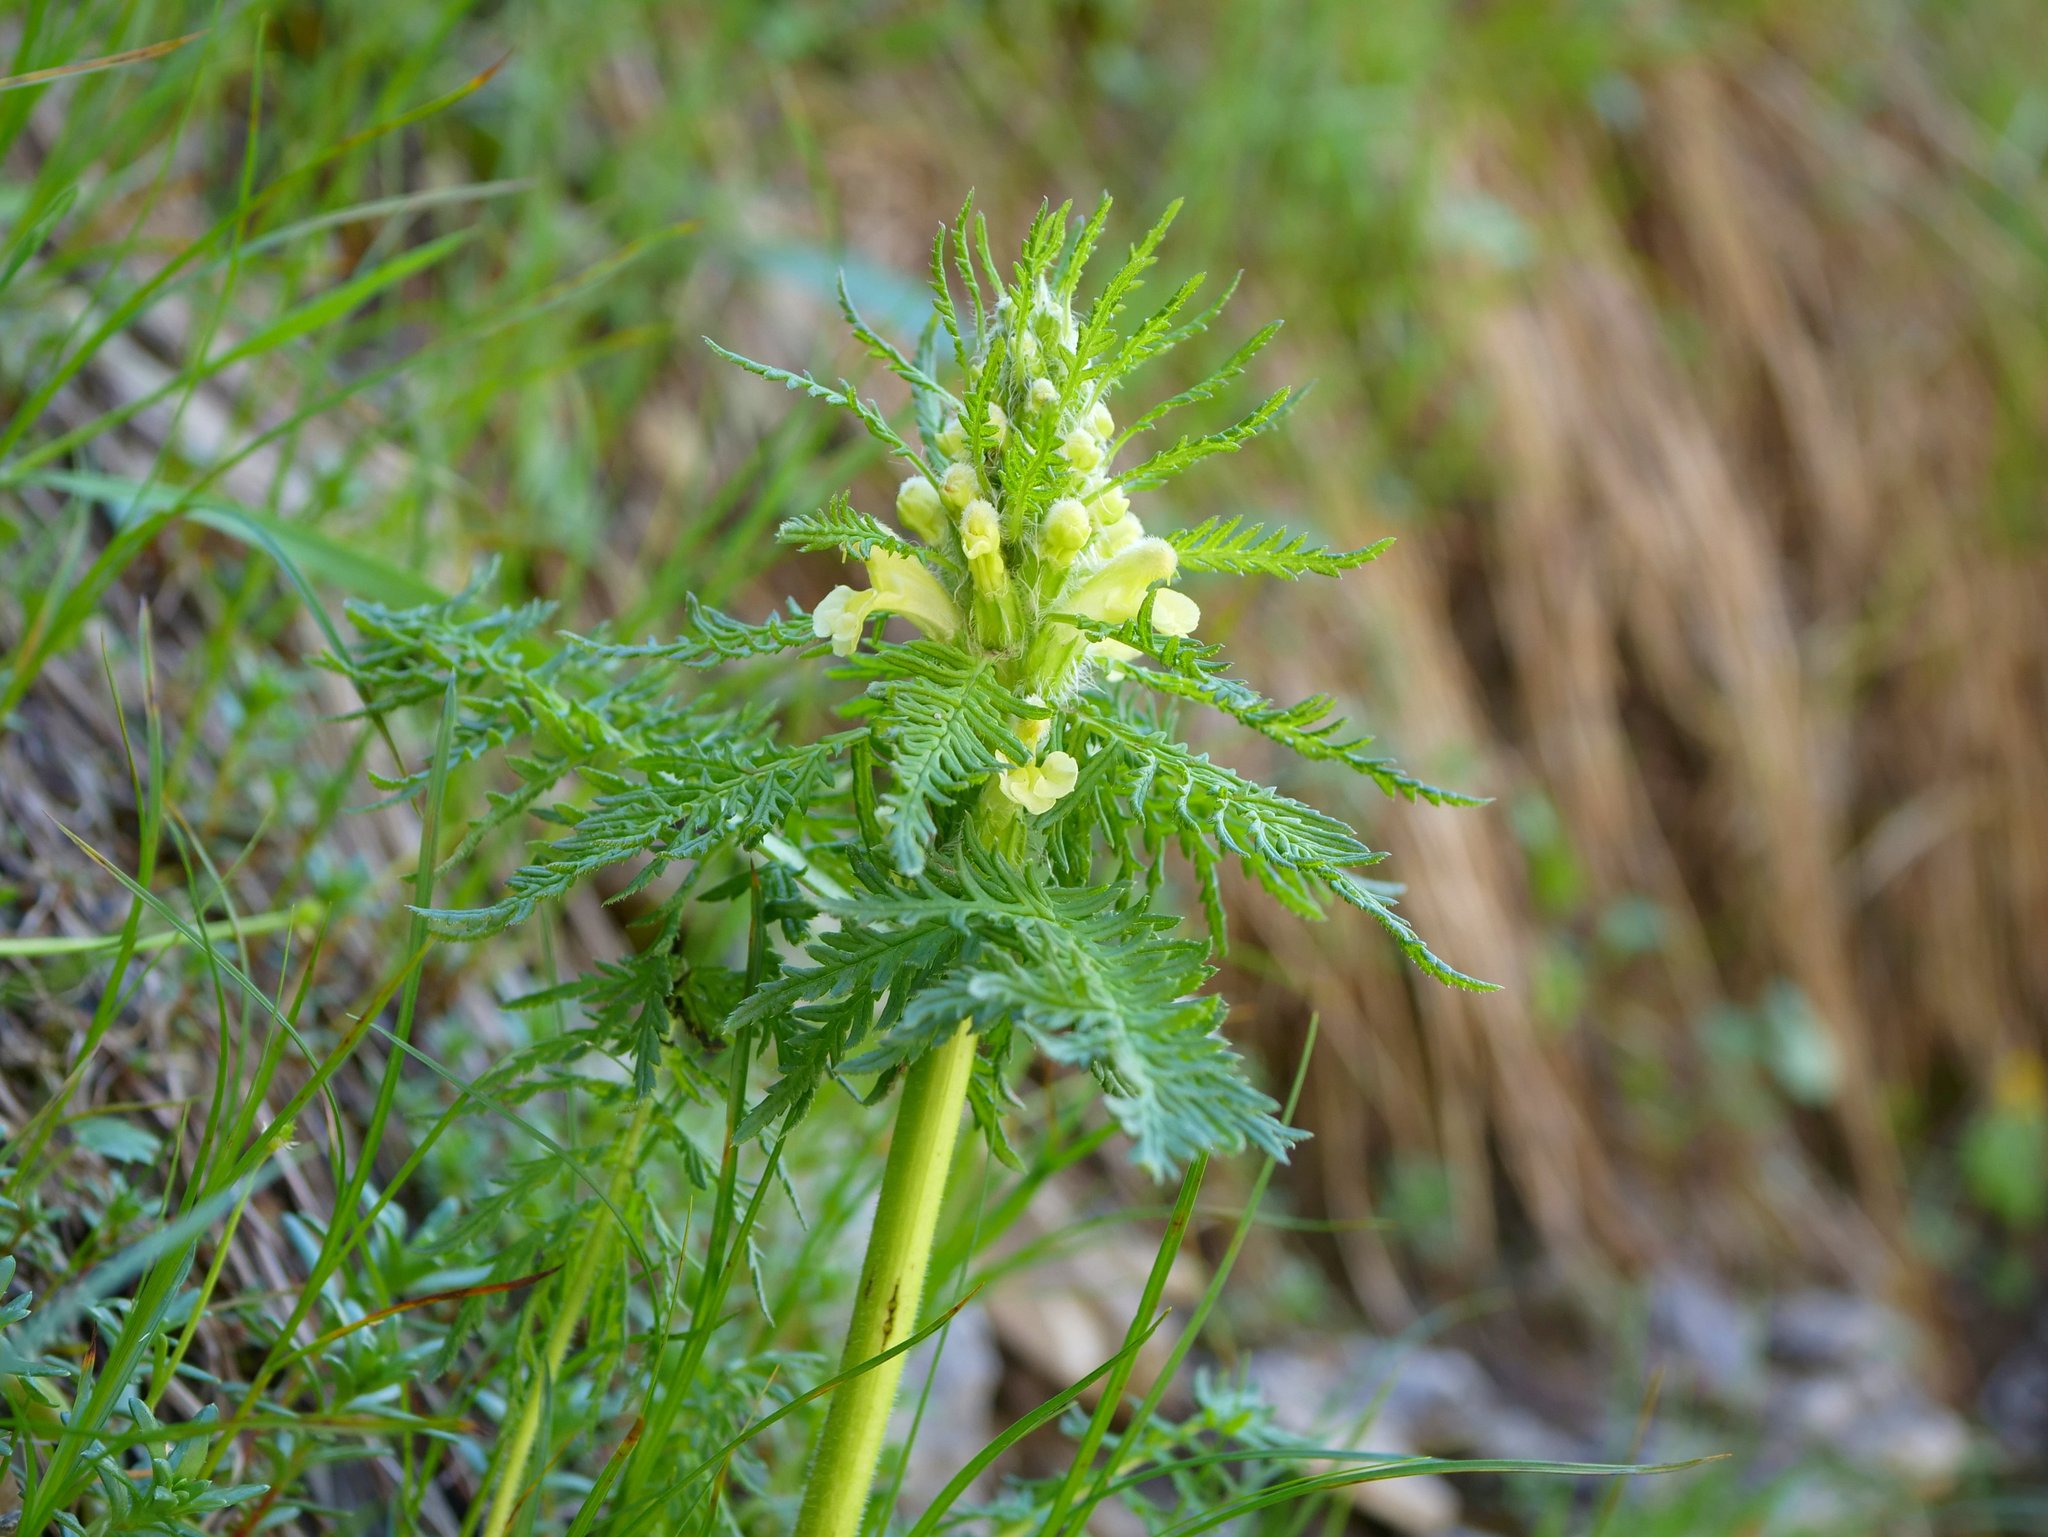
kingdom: Plantae
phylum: Tracheophyta
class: Magnoliopsida
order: Lamiales
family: Orobanchaceae
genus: Pedicularis
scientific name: Pedicularis foliosa
